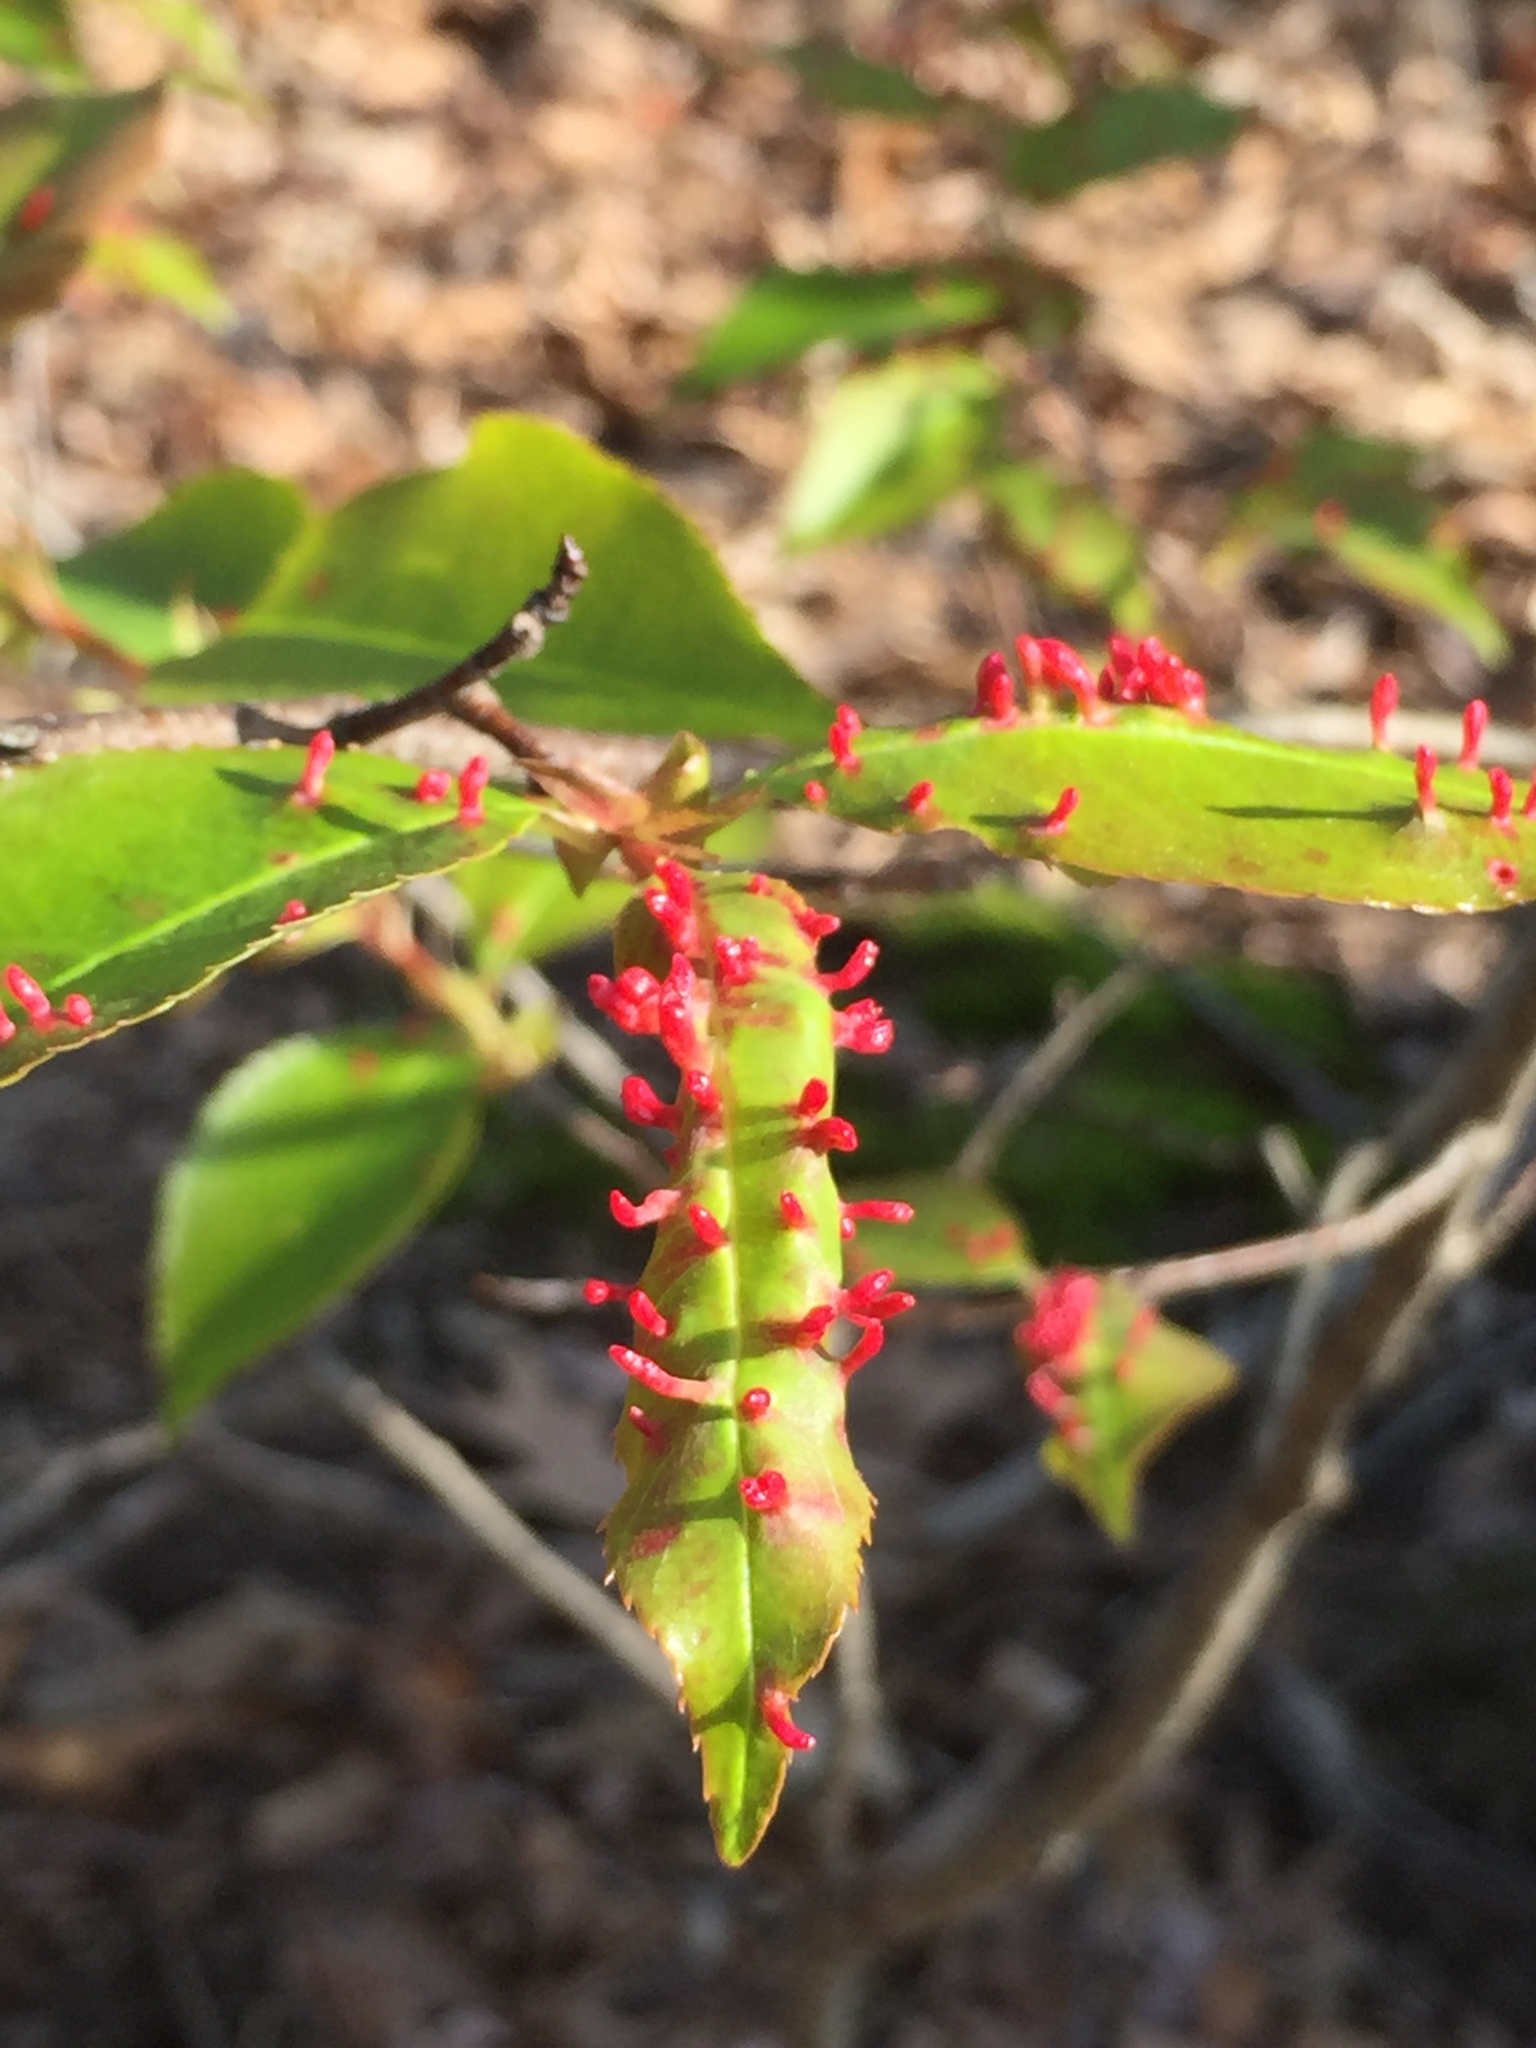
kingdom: Animalia
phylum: Arthropoda
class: Arachnida
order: Trombidiformes
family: Eriophyidae
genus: Eriophyes
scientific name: Eriophyes
